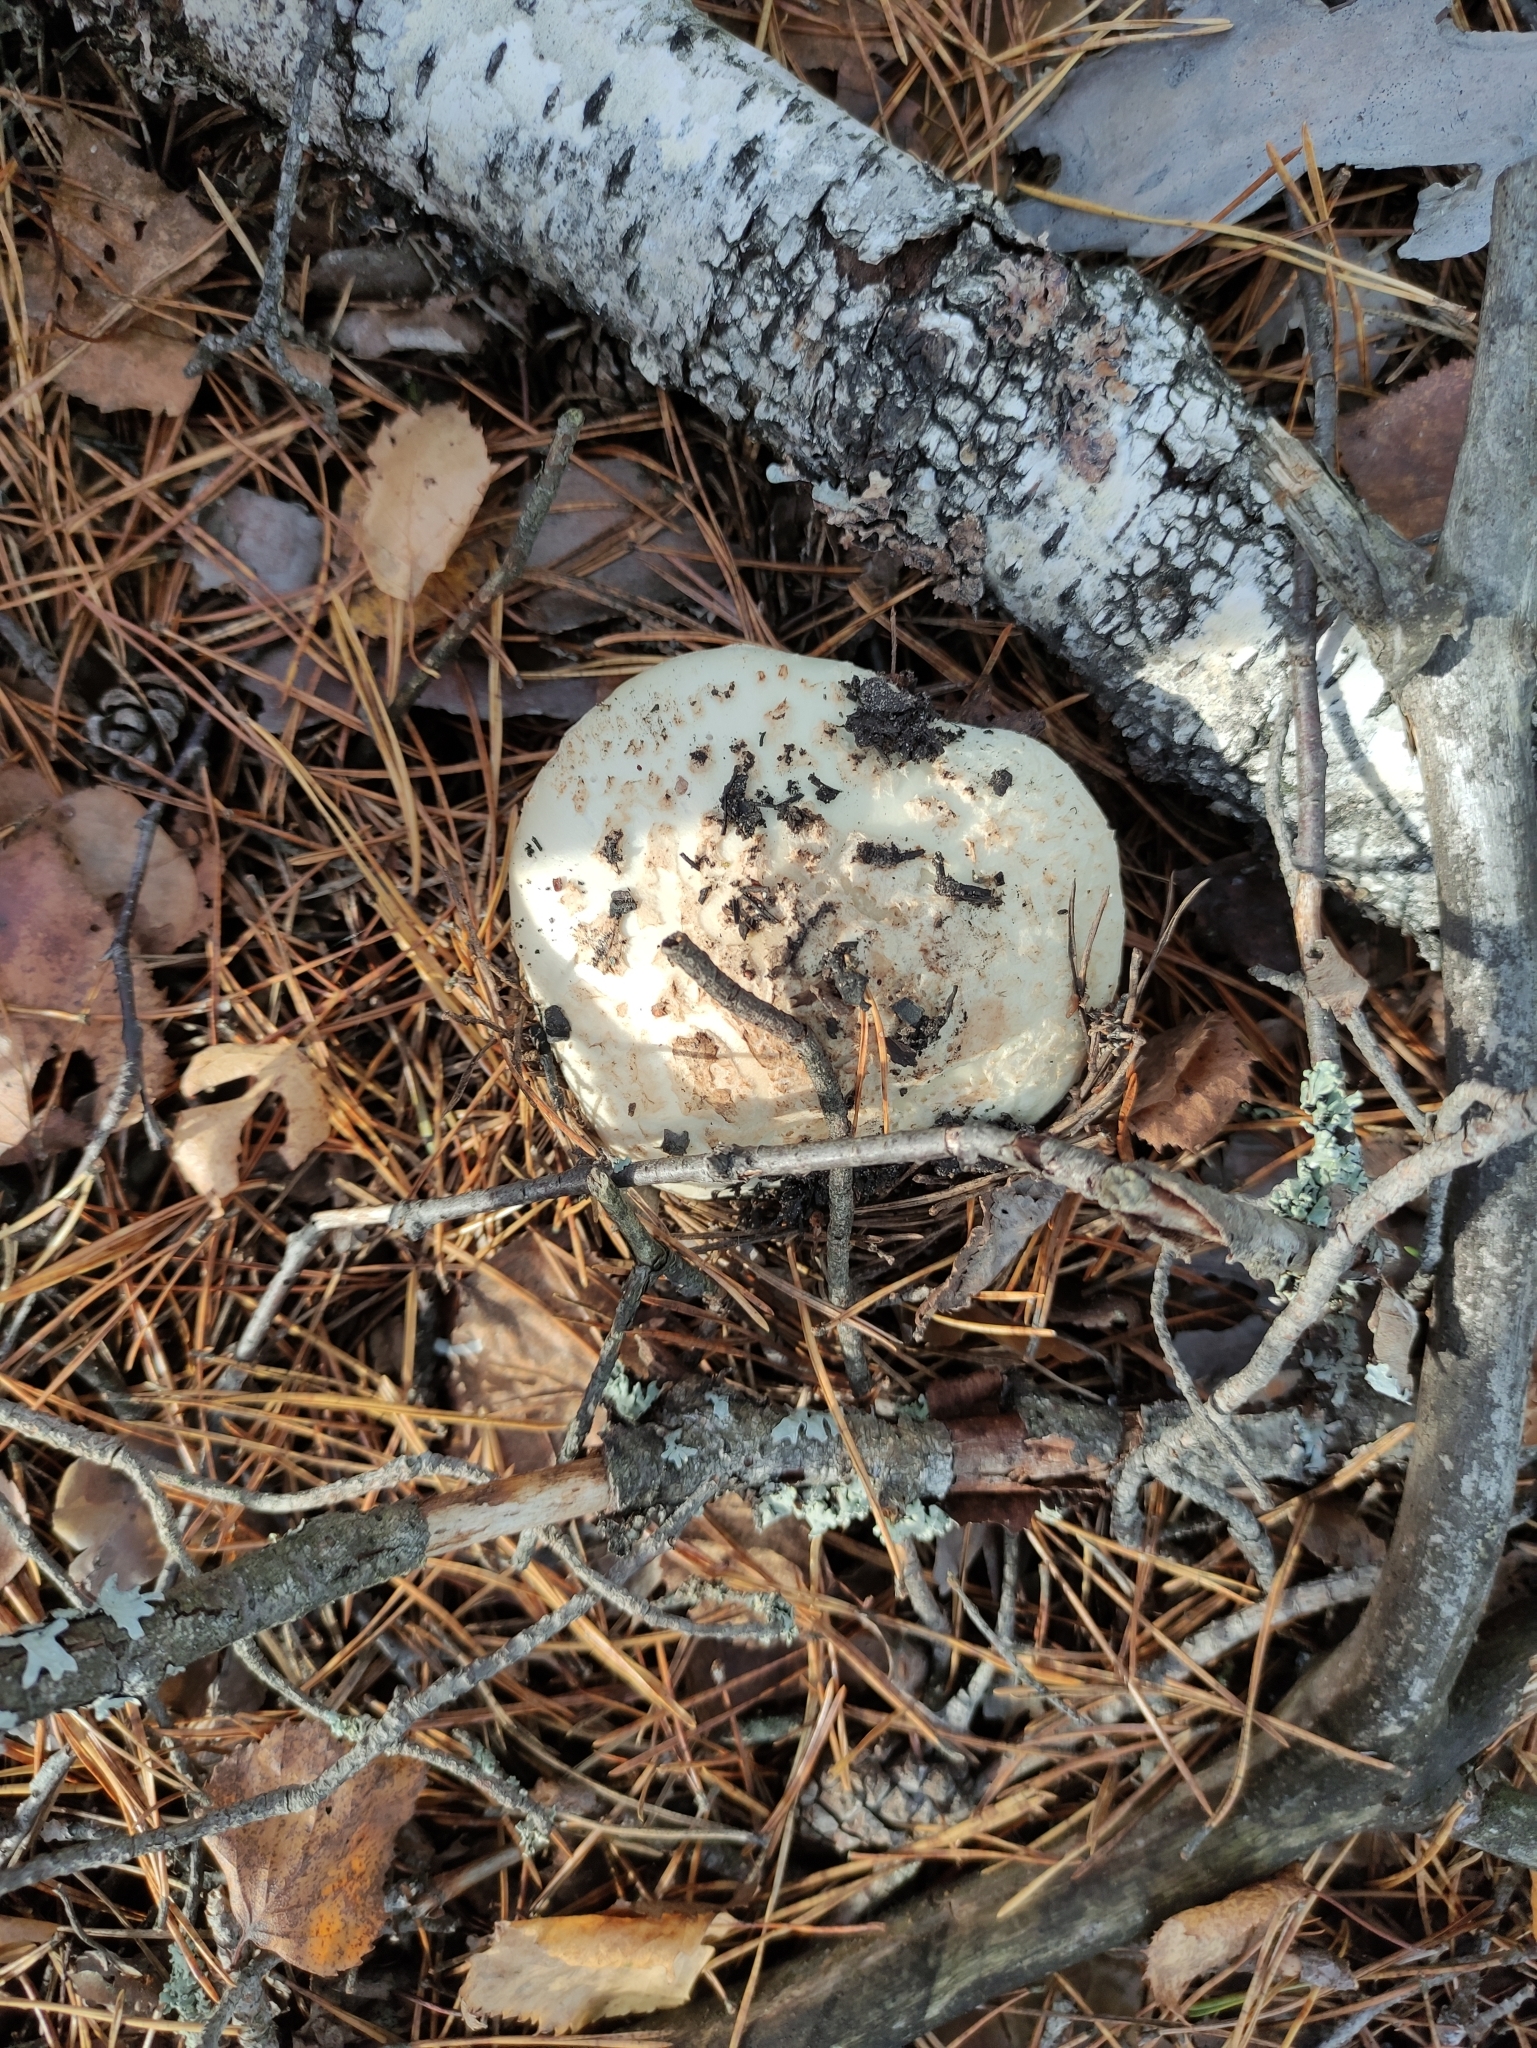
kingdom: Fungi
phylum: Basidiomycota
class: Agaricomycetes
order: Agaricales
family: Amanitaceae
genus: Amanita
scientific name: Amanita citrina
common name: False death-cap
